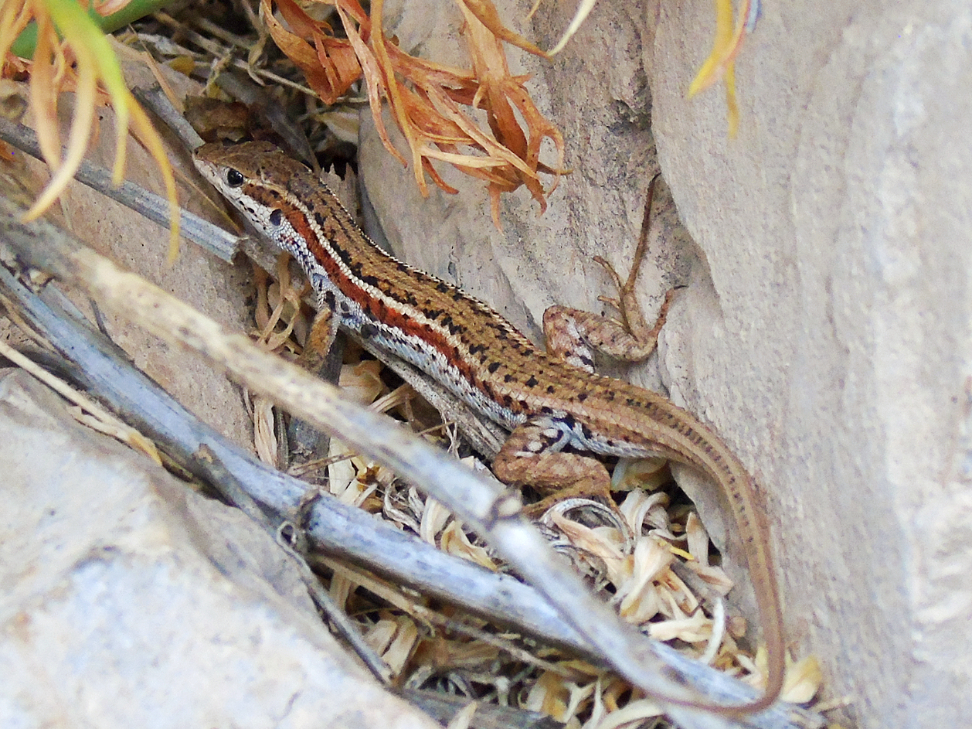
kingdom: Animalia
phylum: Chordata
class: Squamata
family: Lacertidae
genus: Ophisops
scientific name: Ophisops elegans
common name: Snake-eyed lizard
